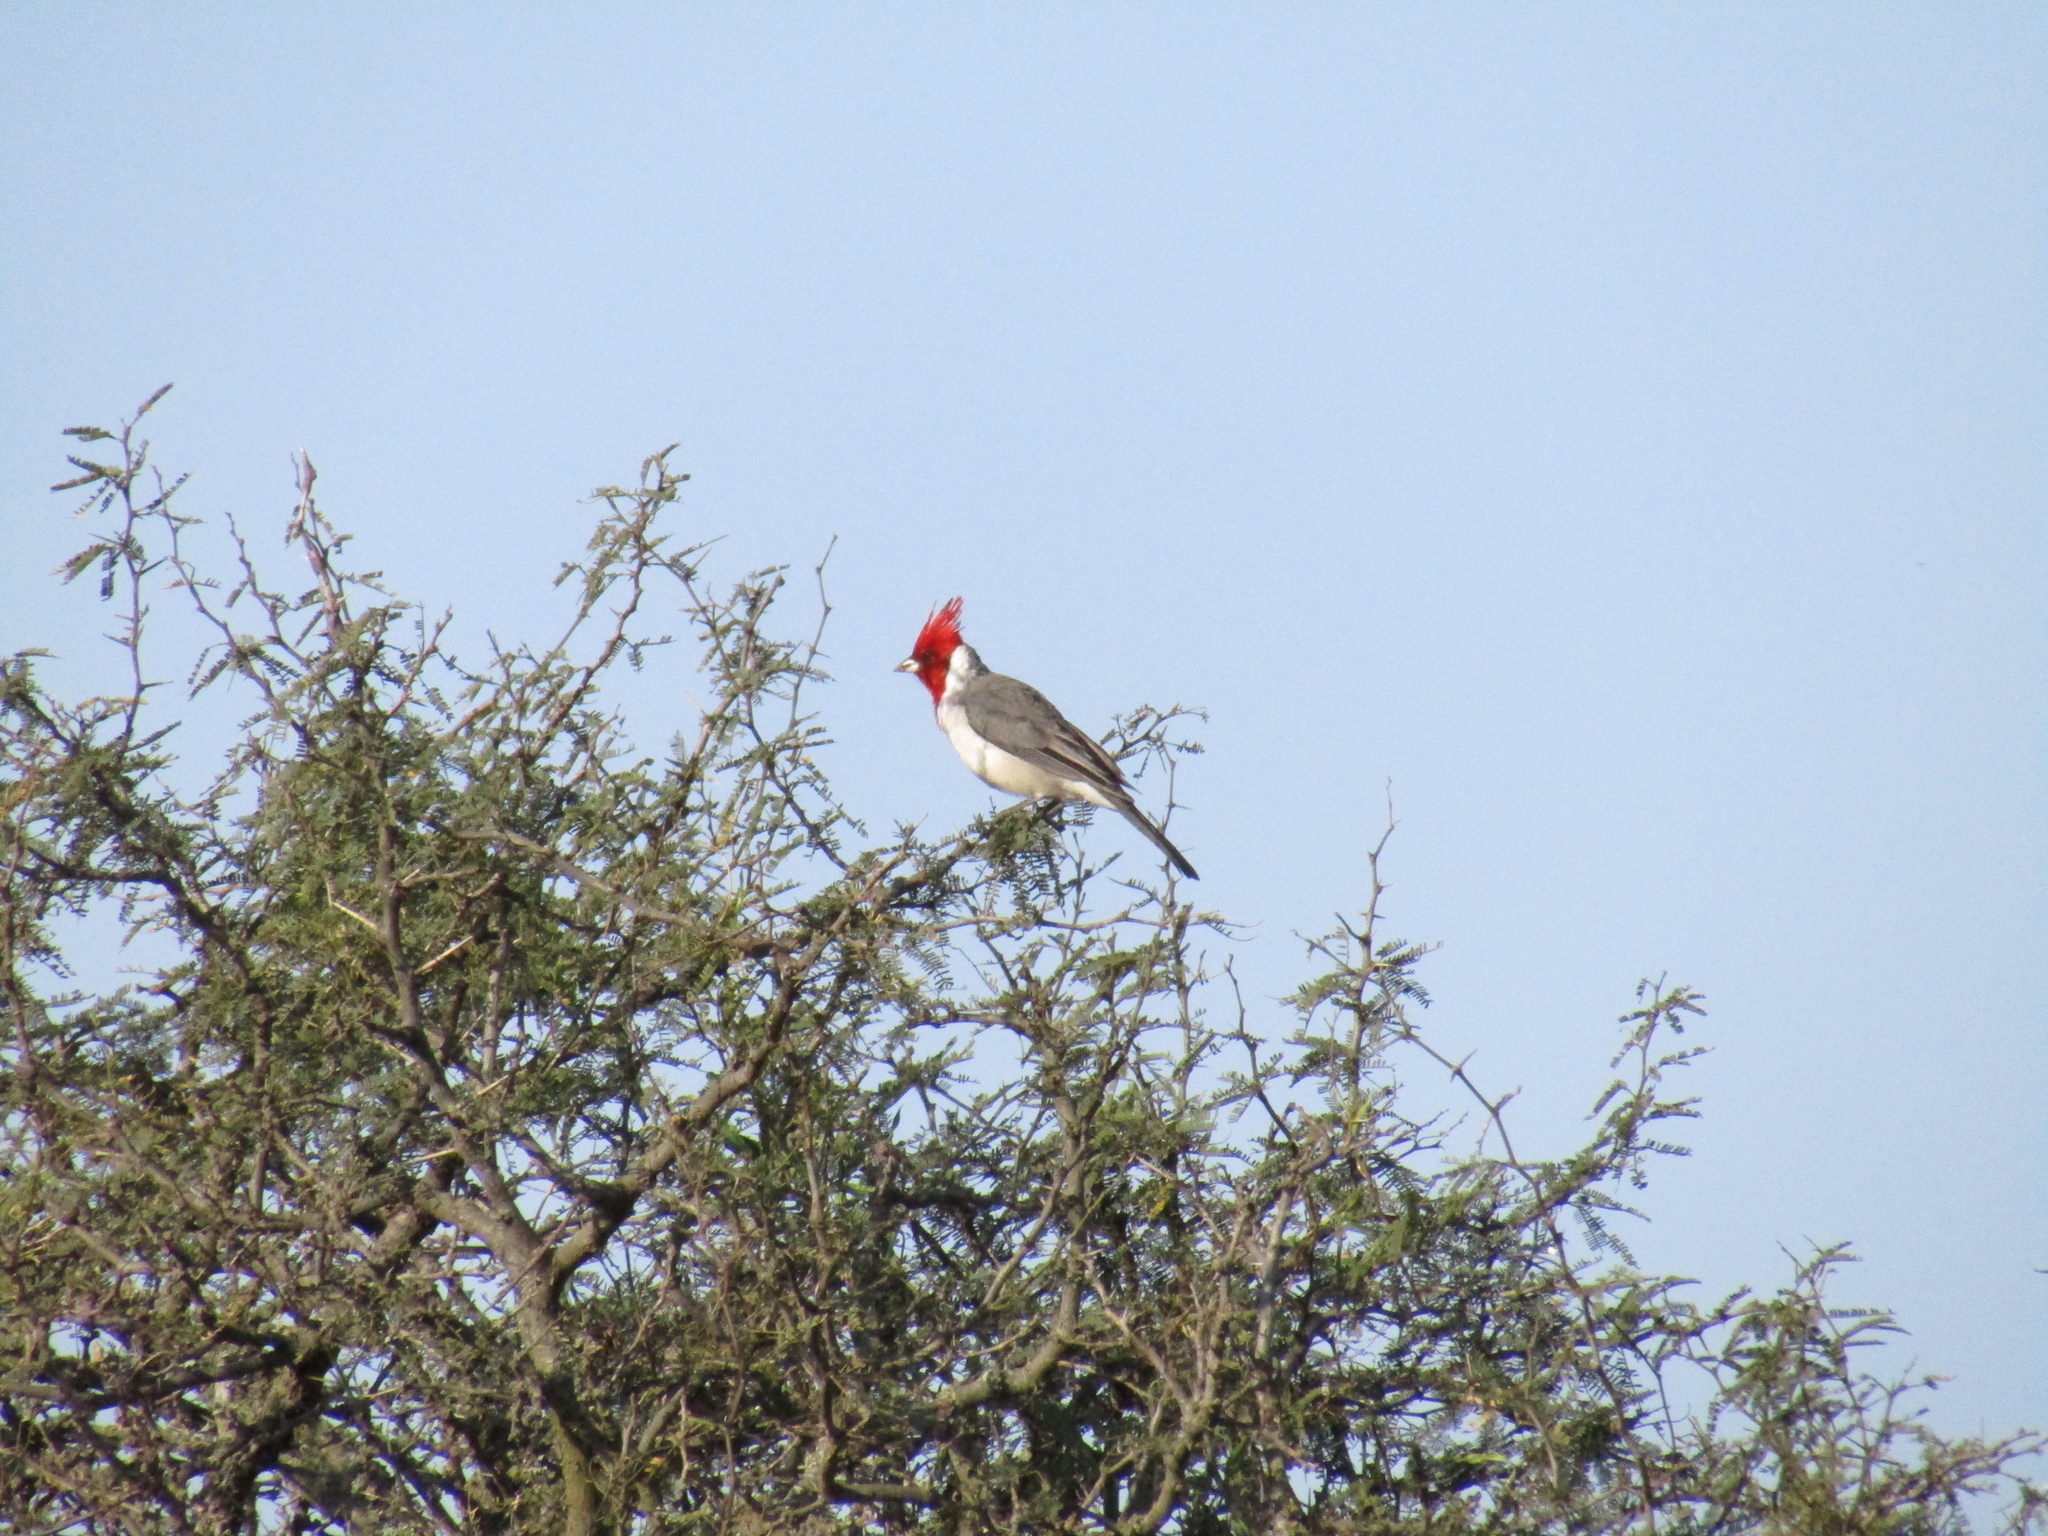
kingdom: Animalia
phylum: Chordata
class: Aves
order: Passeriformes
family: Thraupidae
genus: Paroaria
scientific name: Paroaria coronata
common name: Red-crested cardinal
